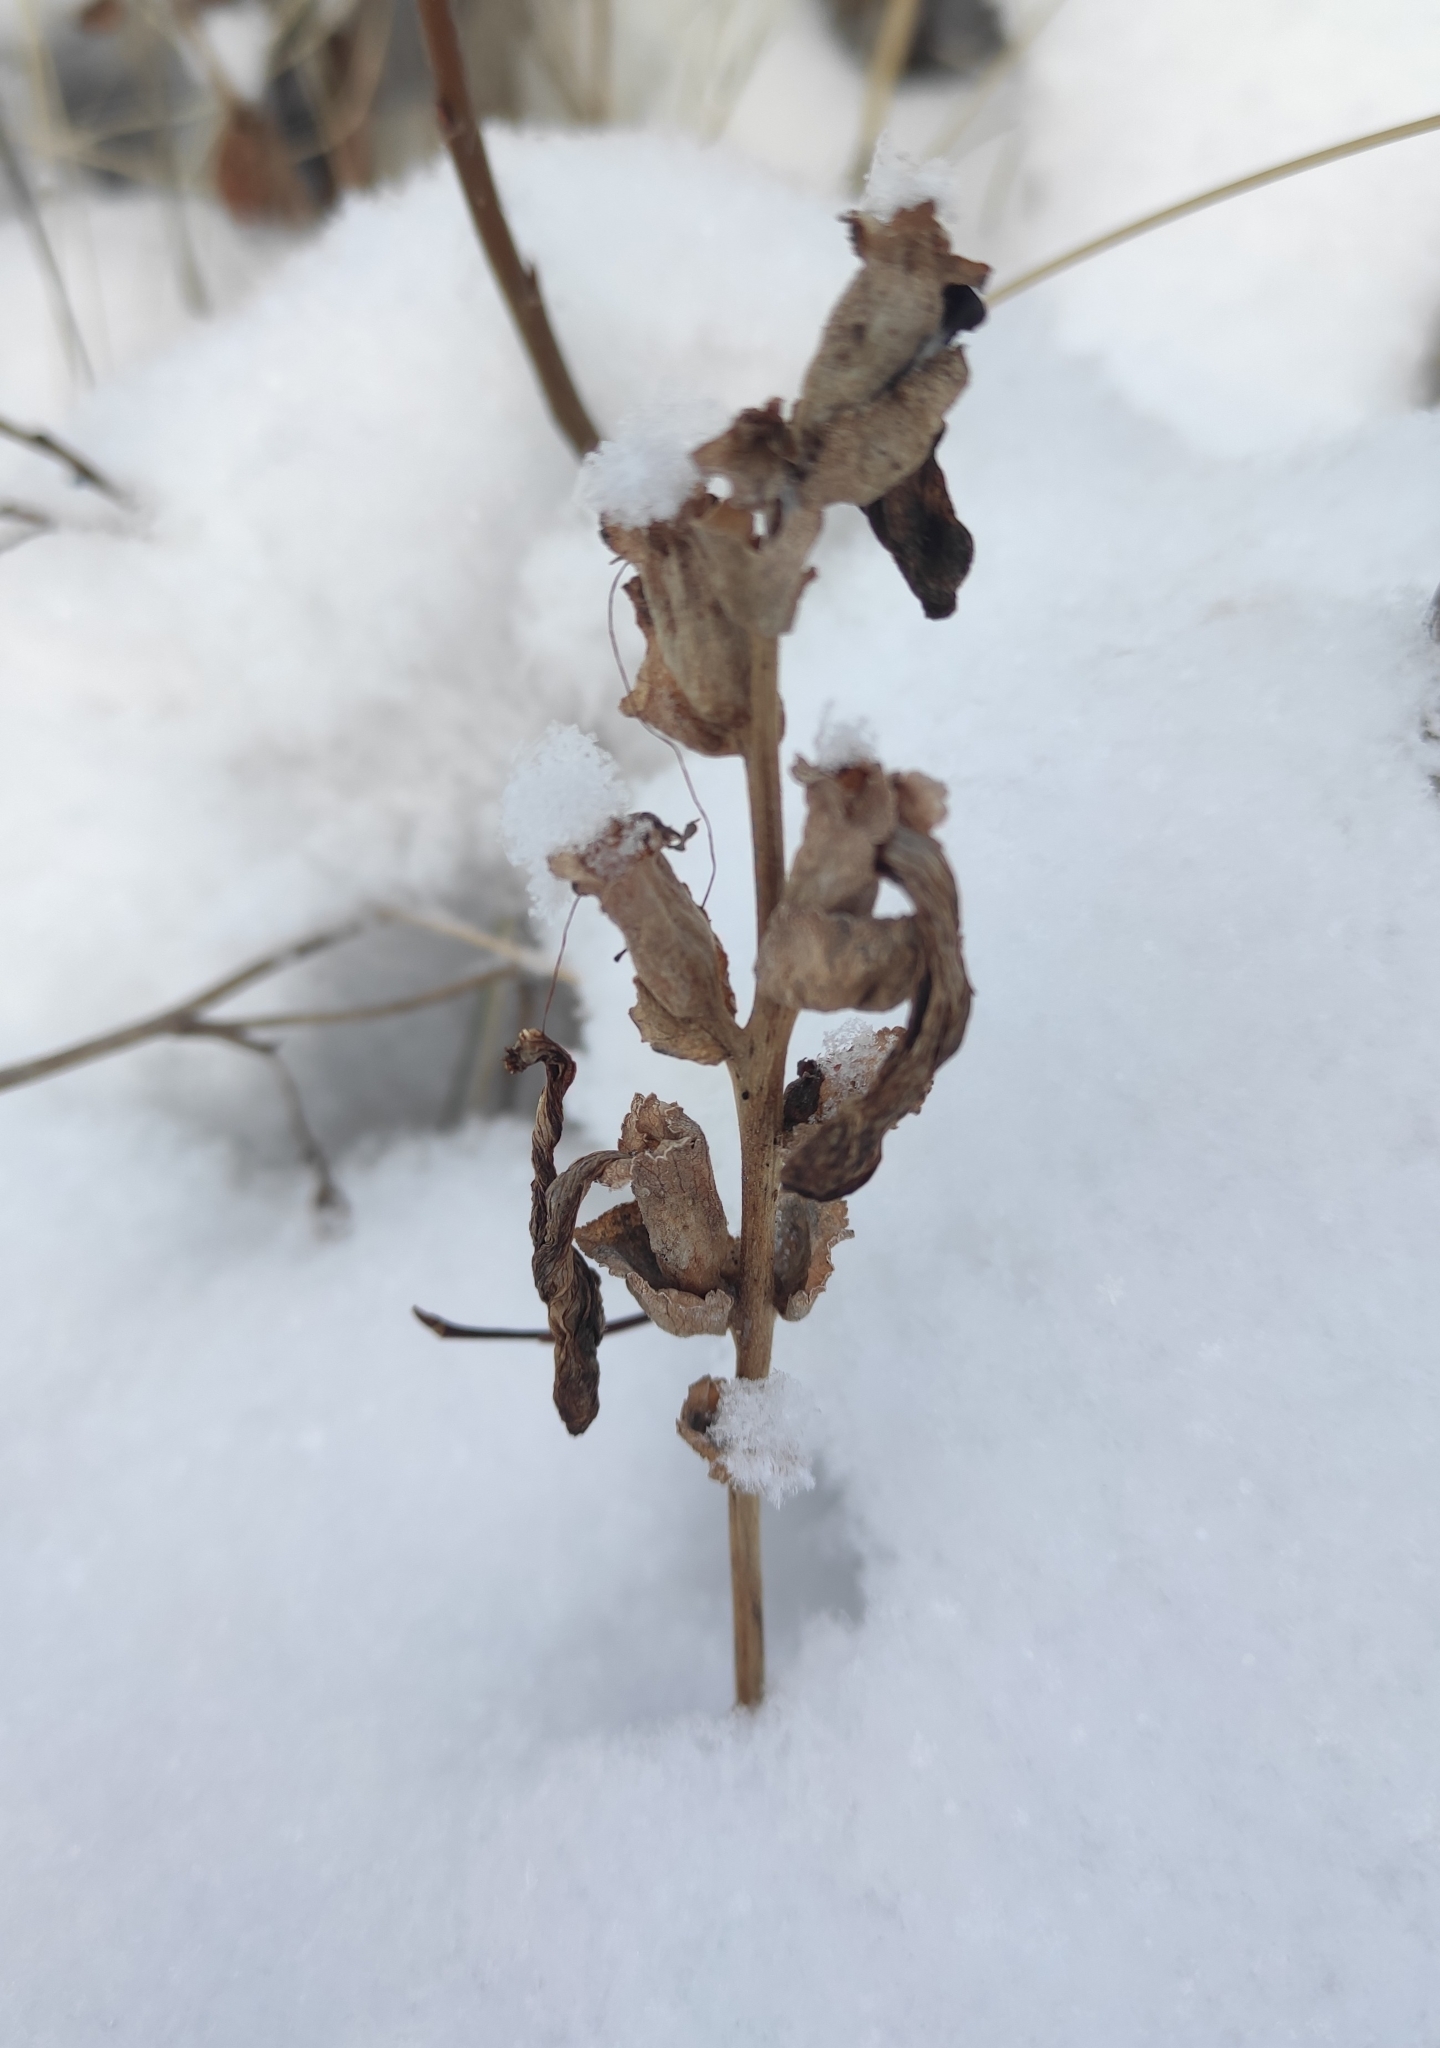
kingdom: Plantae
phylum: Tracheophyta
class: Magnoliopsida
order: Lamiales
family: Orobanchaceae
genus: Pedicularis
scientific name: Pedicularis sceptrum-carolinum
